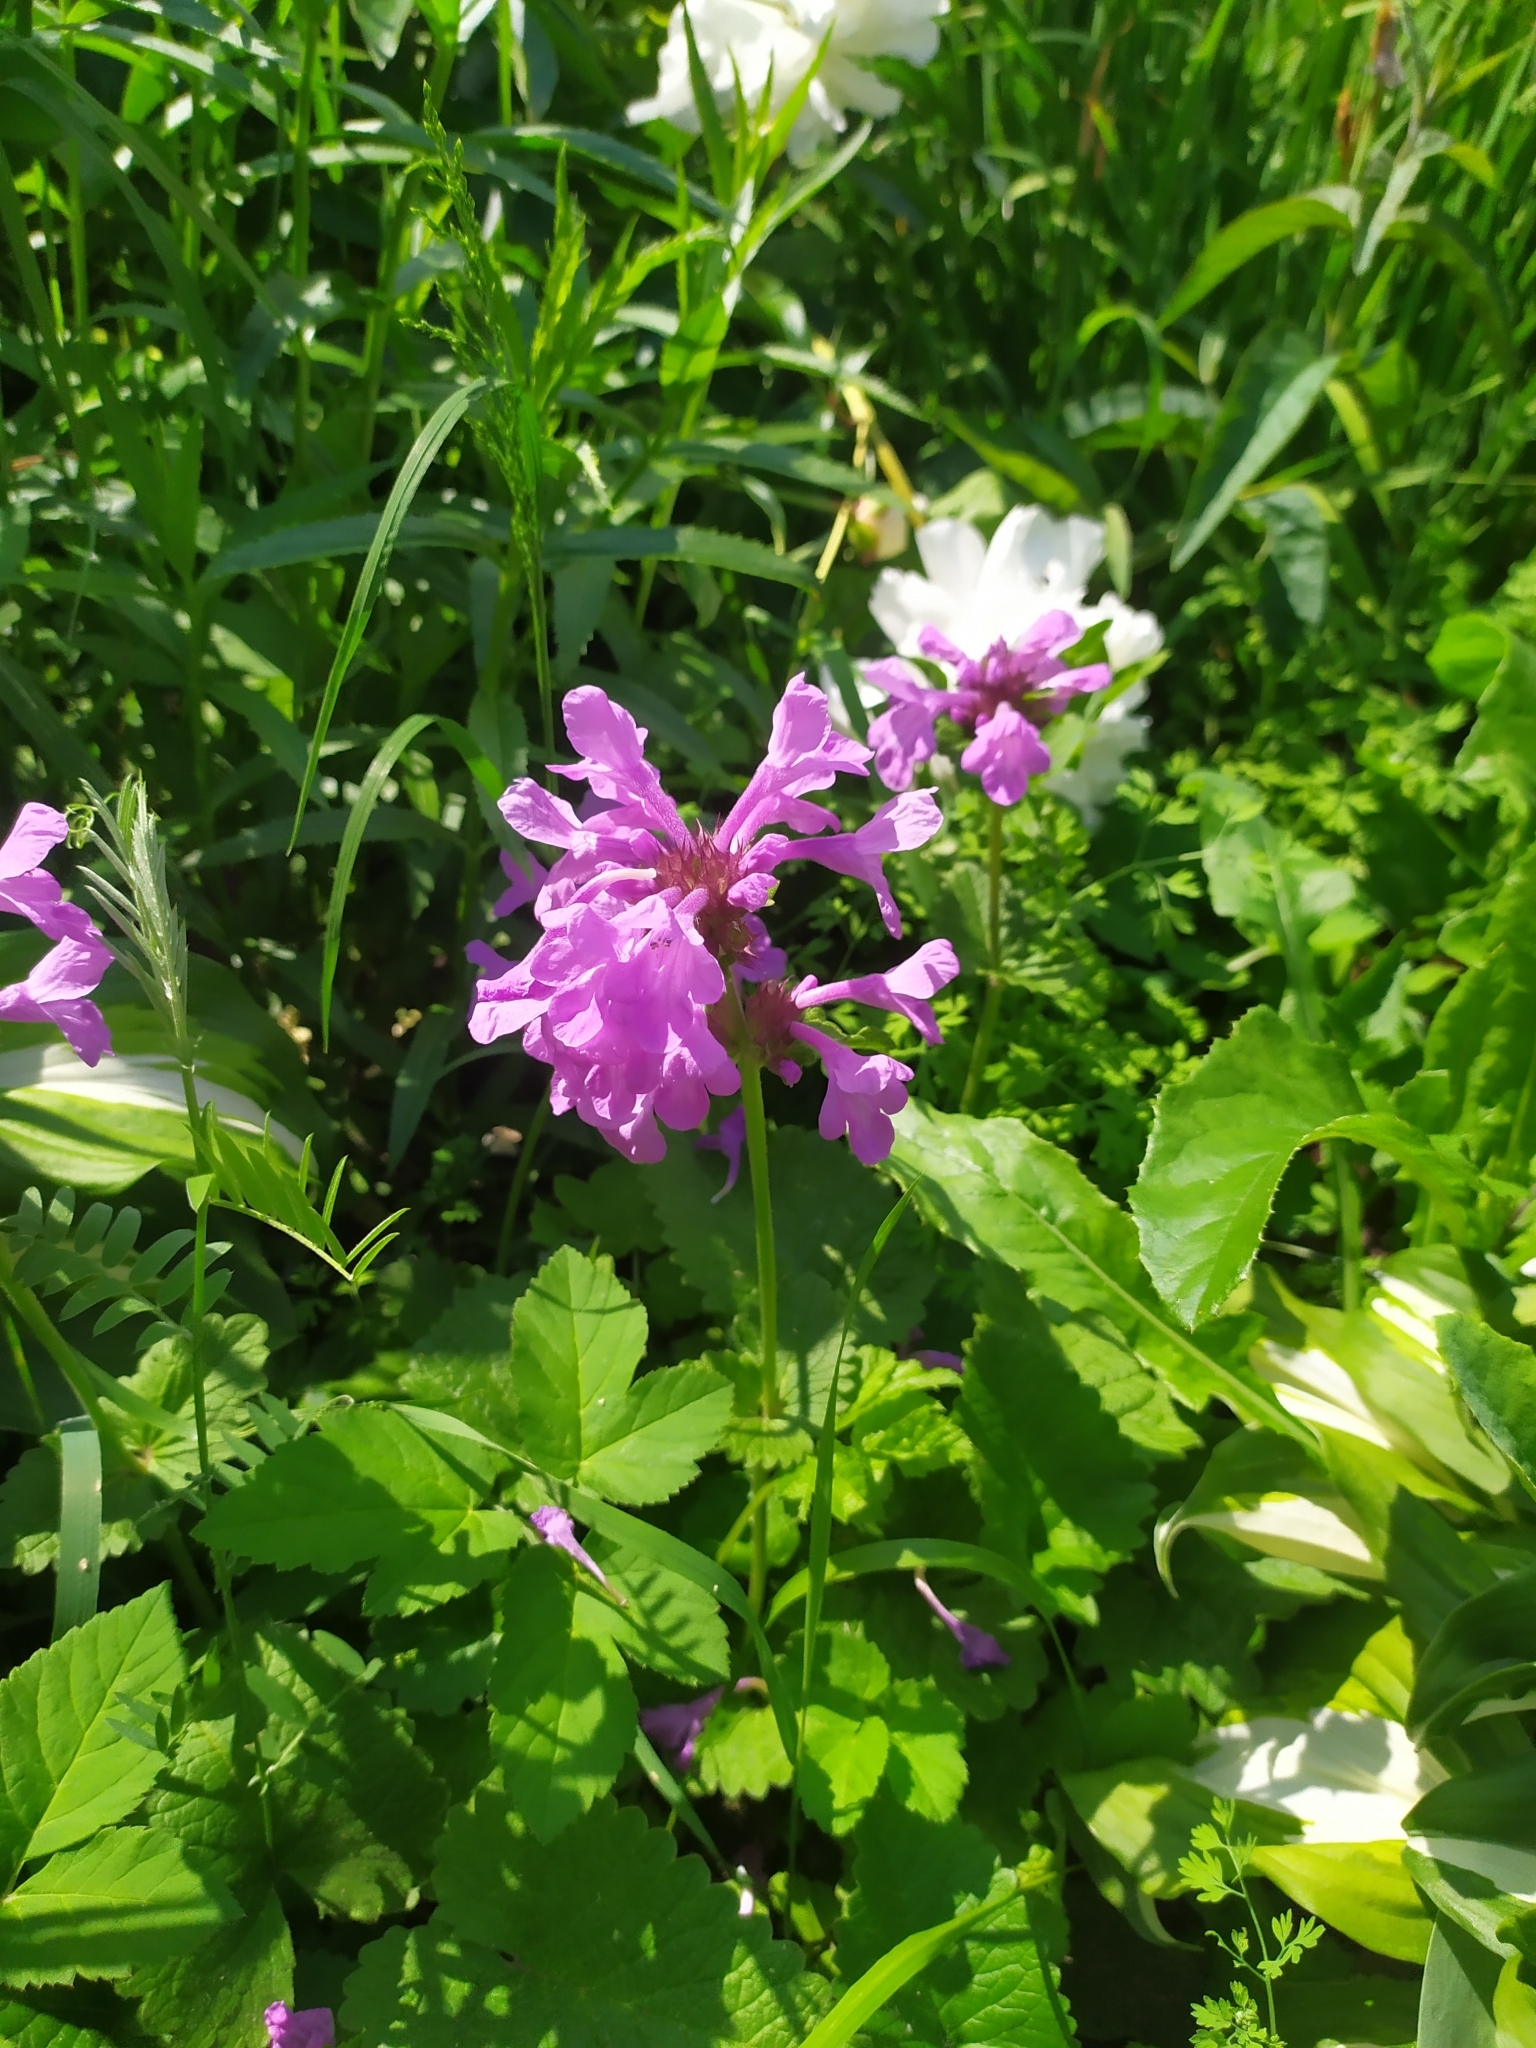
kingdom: Plantae
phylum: Tracheophyta
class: Magnoliopsida
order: Lamiales
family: Lamiaceae
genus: Betonica
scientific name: Betonica macrantha
